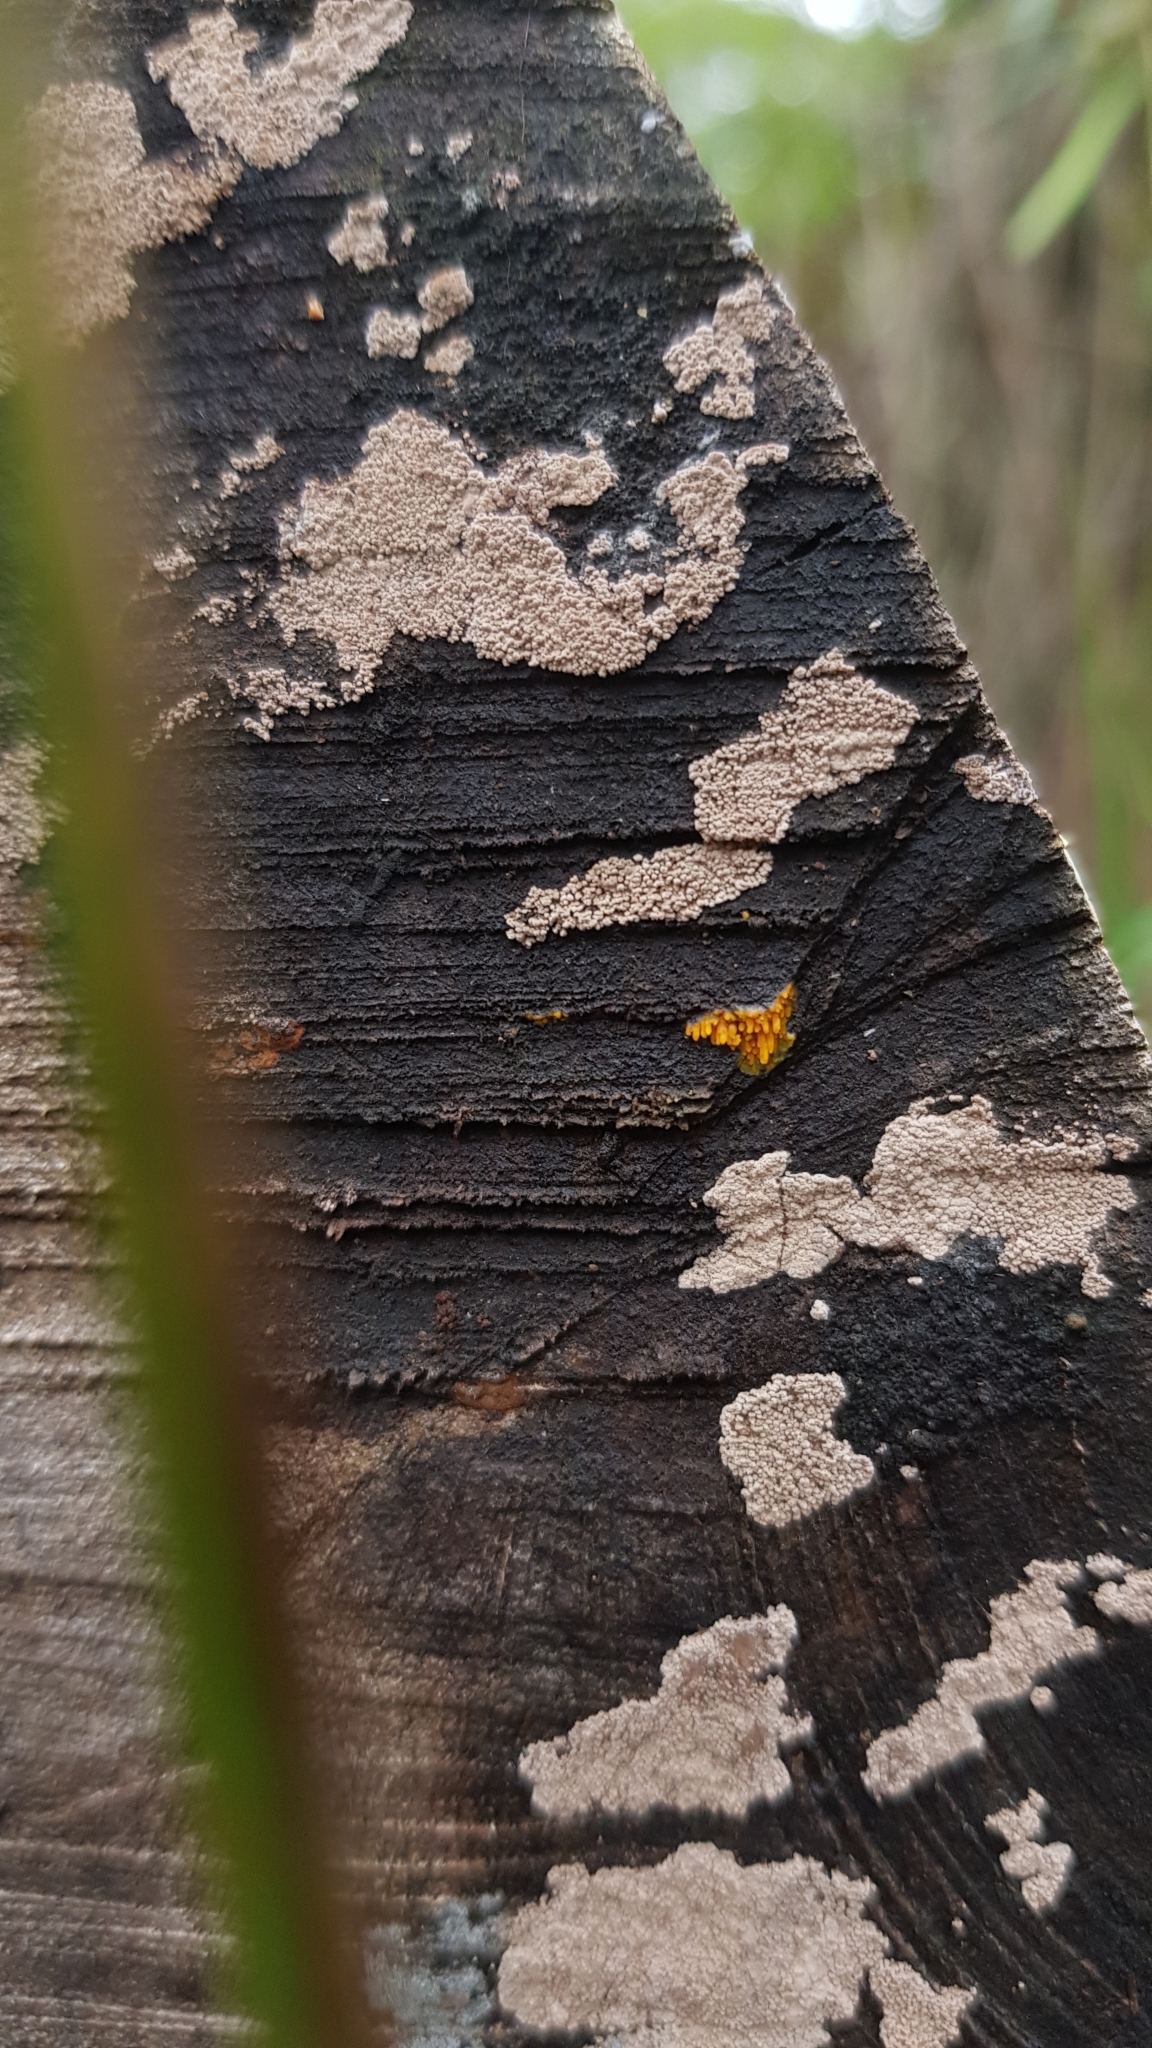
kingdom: Fungi
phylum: Basidiomycota
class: Agaricomycetes
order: Polyporales
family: Meruliaceae
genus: Phlebia
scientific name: Phlebia subceracea
